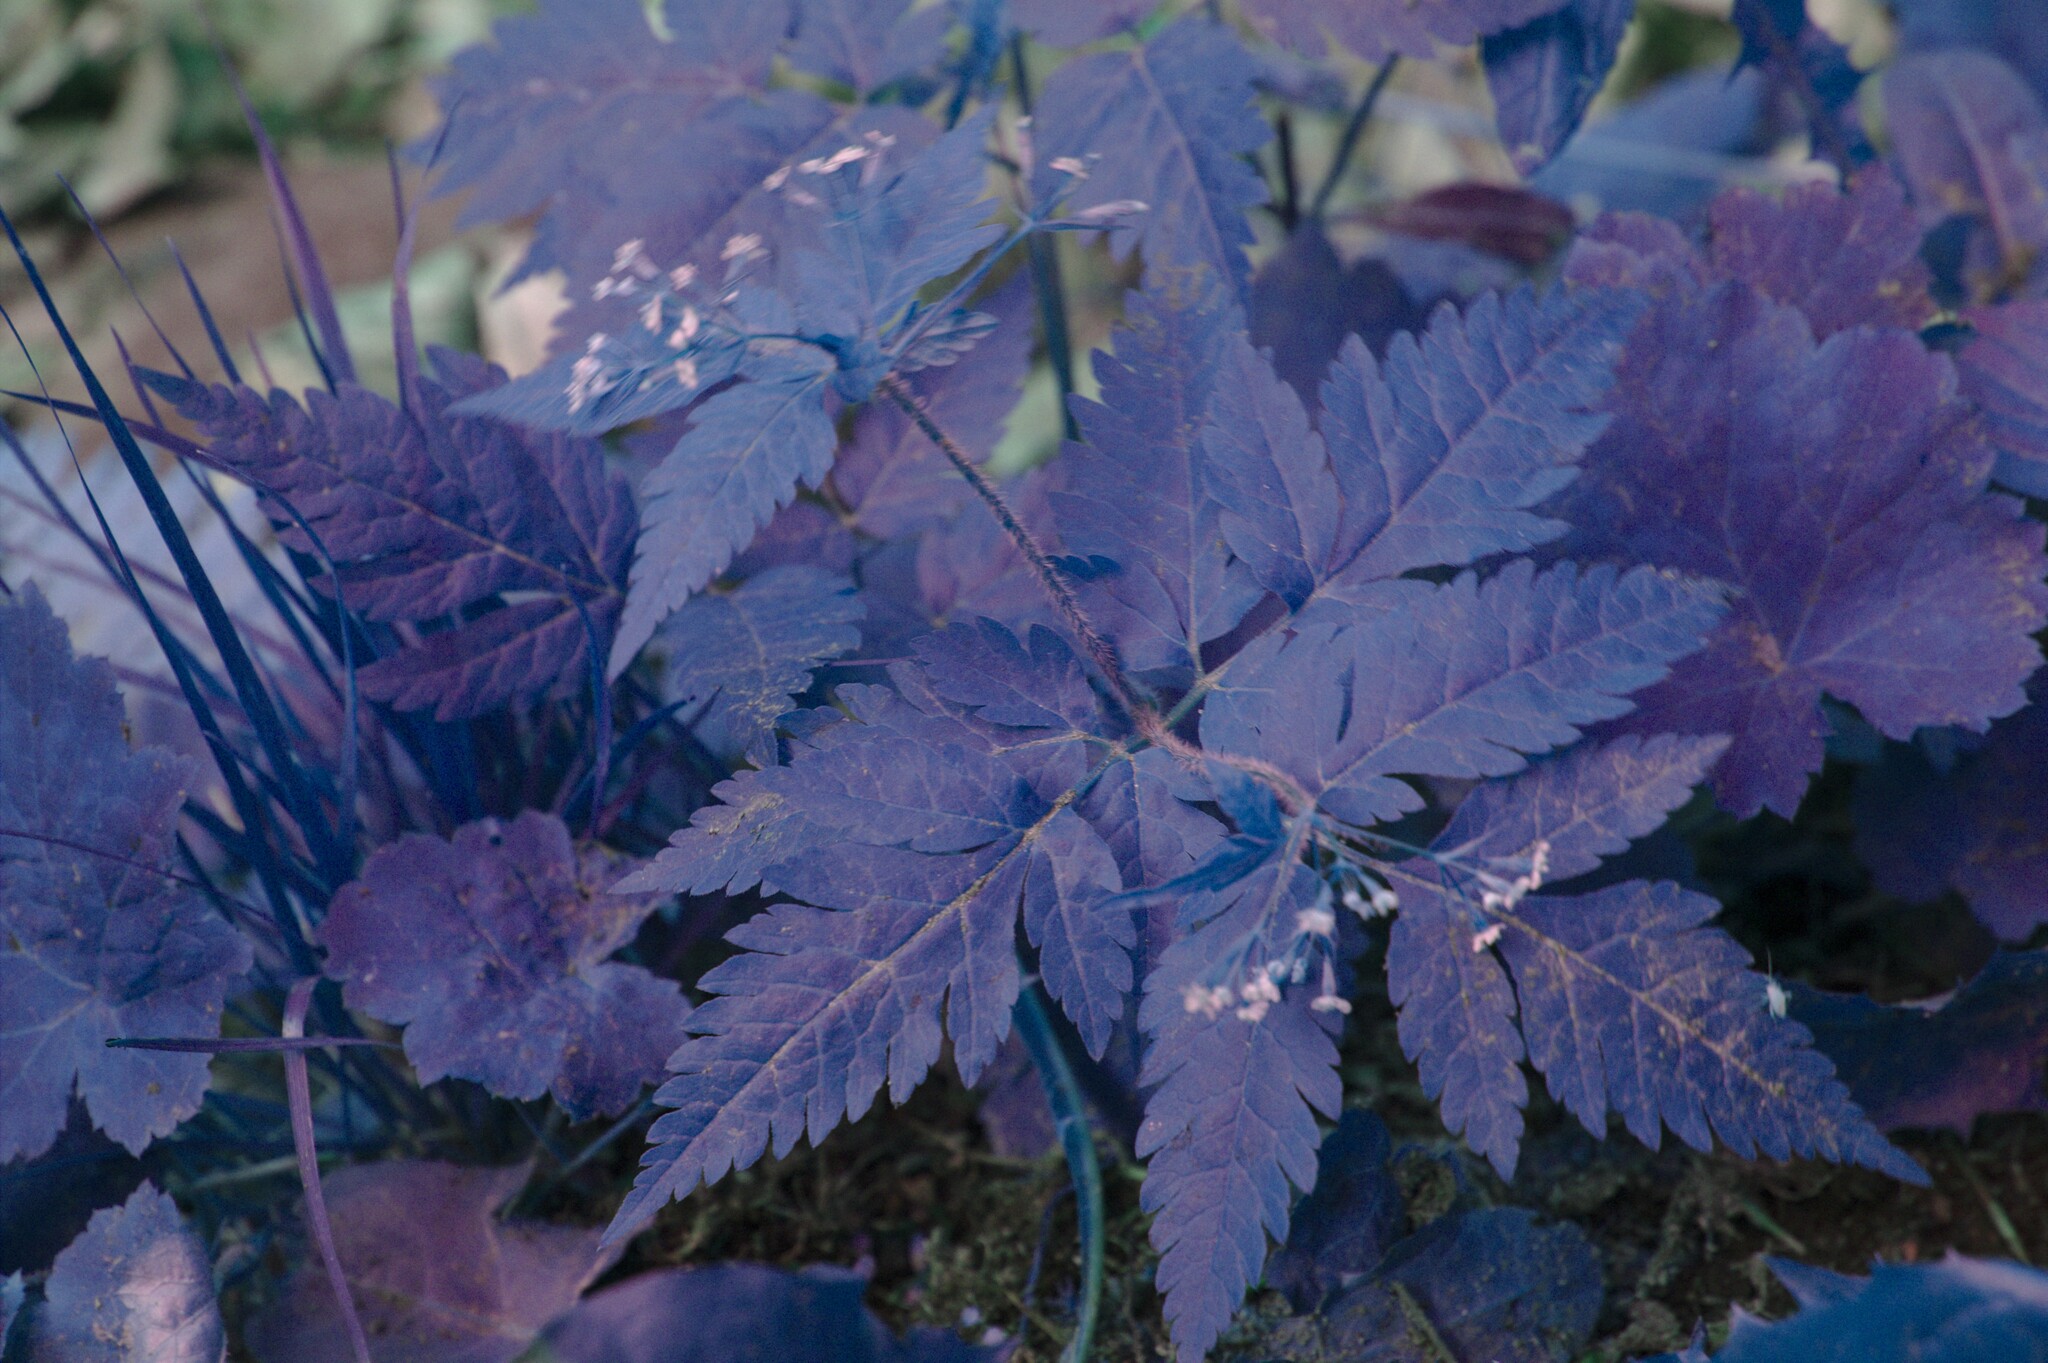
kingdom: Plantae
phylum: Tracheophyta
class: Magnoliopsida
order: Apiales
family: Apiaceae
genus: Osmorhiza
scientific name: Osmorhiza claytonii
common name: Hairy sweet cicely
